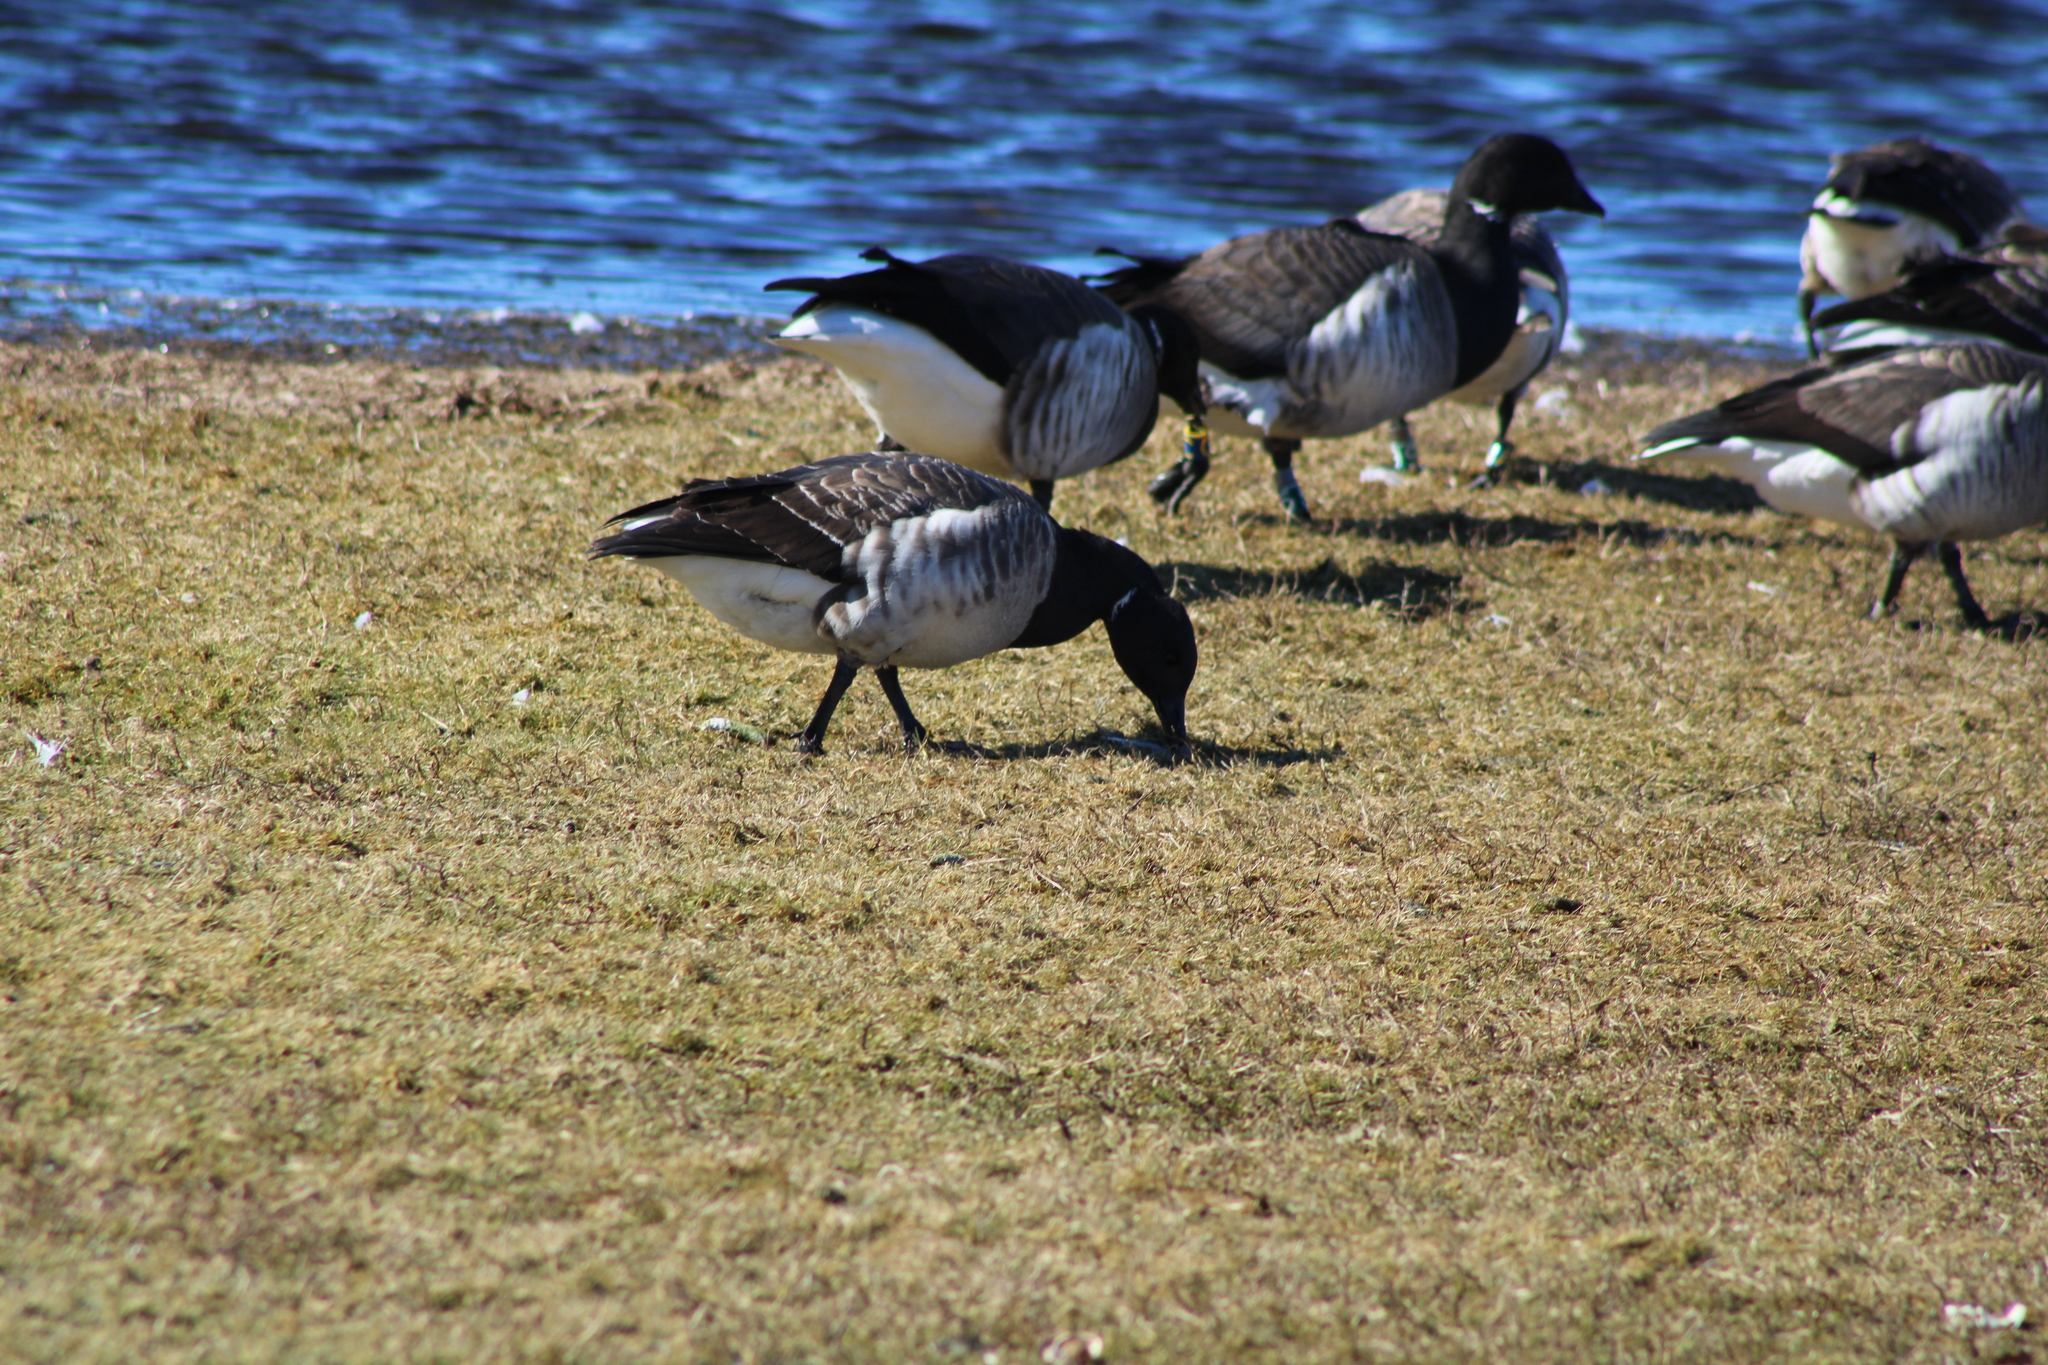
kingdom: Animalia
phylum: Chordata
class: Aves
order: Anseriformes
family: Anatidae
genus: Branta
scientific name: Branta bernicla
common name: Brant goose
